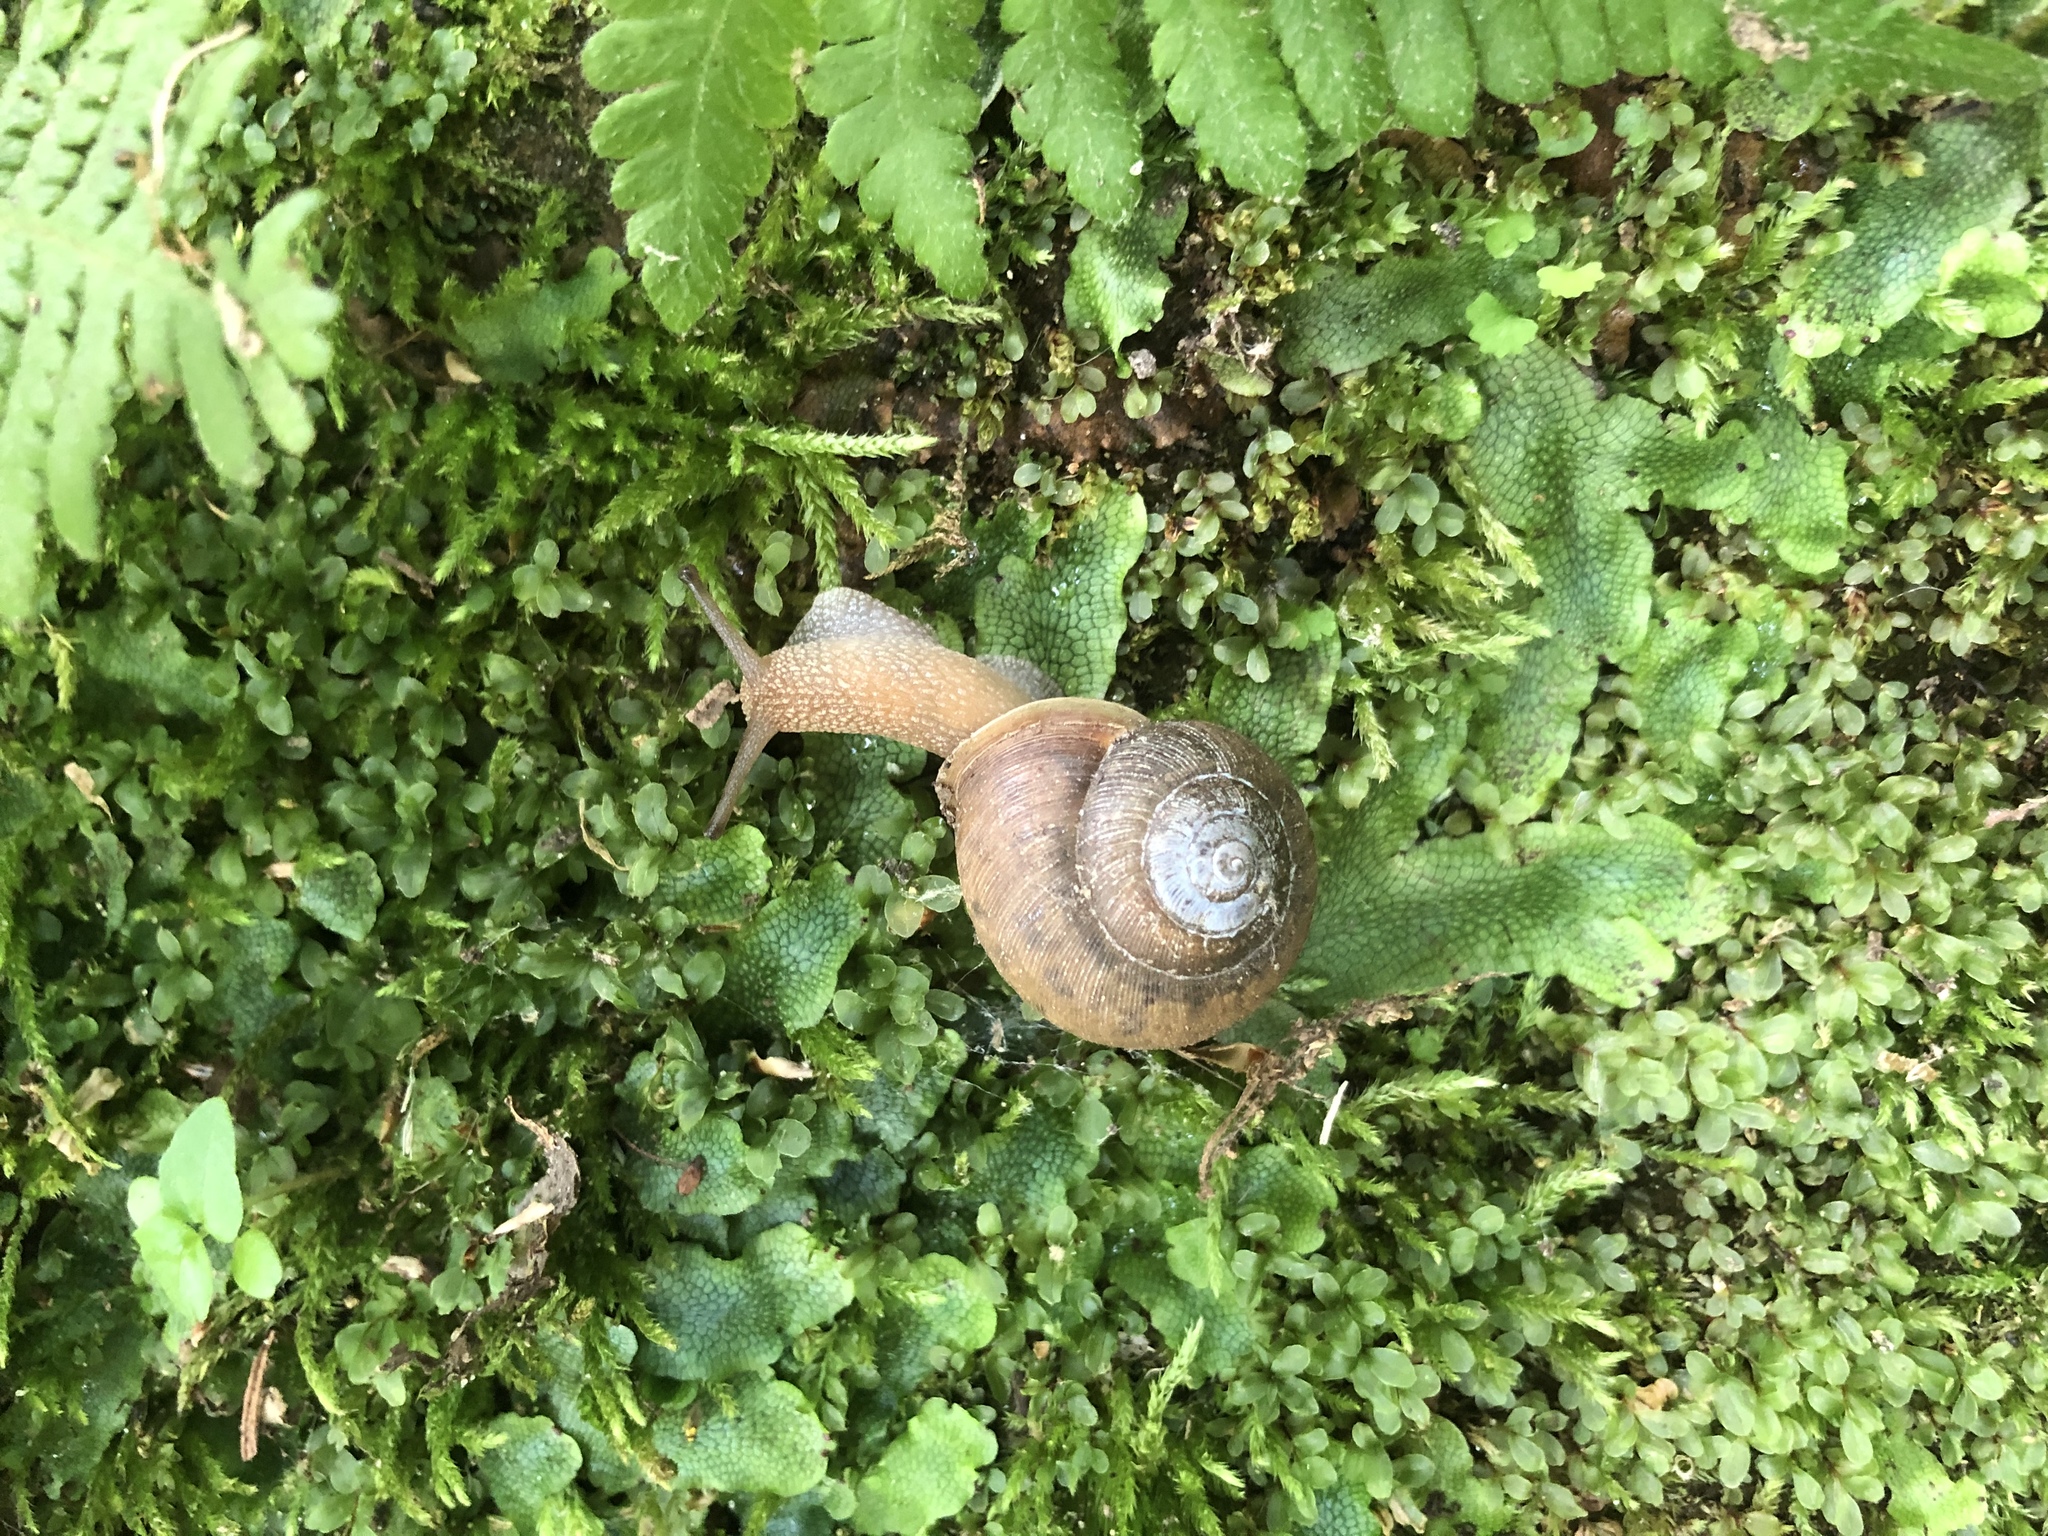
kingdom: Animalia
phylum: Mollusca
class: Gastropoda
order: Stylommatophora
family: Polygyridae
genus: Neohelix
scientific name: Neohelix albolabris
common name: Eastern whitelip
